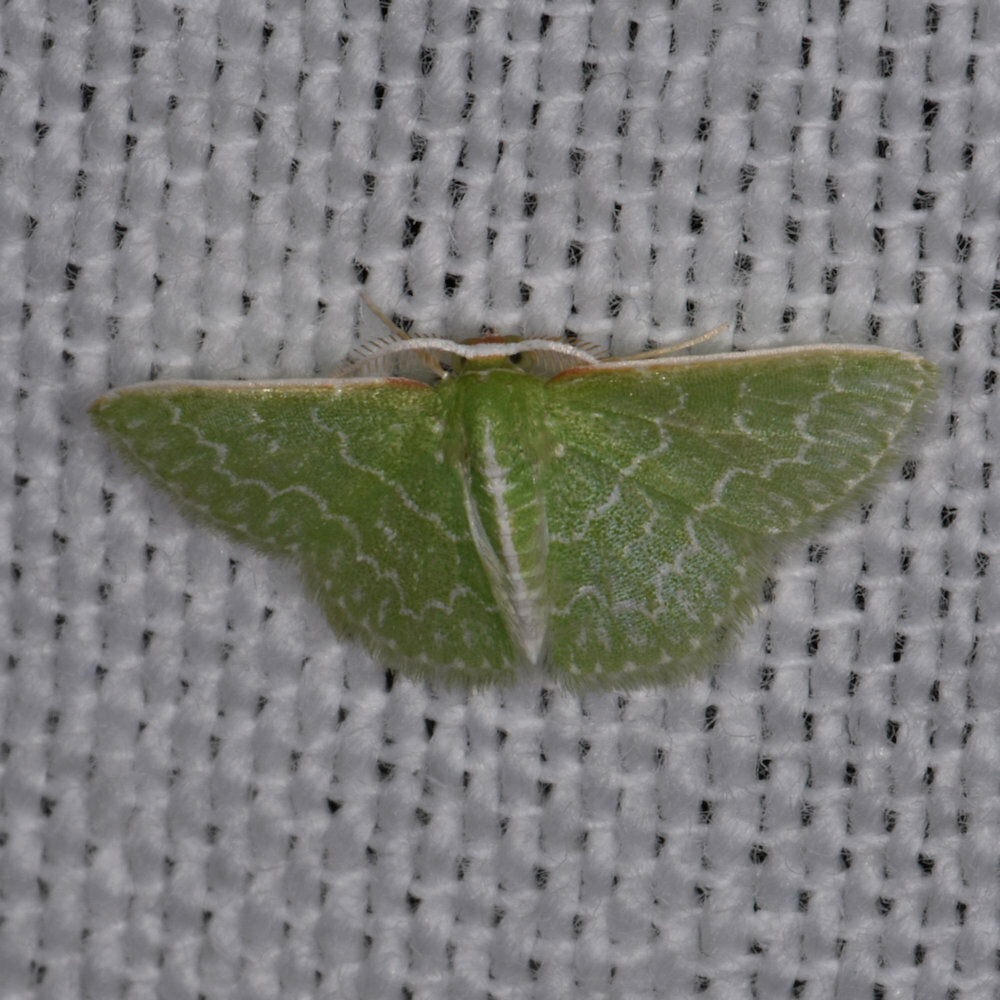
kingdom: Animalia
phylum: Arthropoda
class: Insecta
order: Lepidoptera
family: Geometridae
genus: Synchlora
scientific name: Synchlora frondaria
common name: Southern emerald
